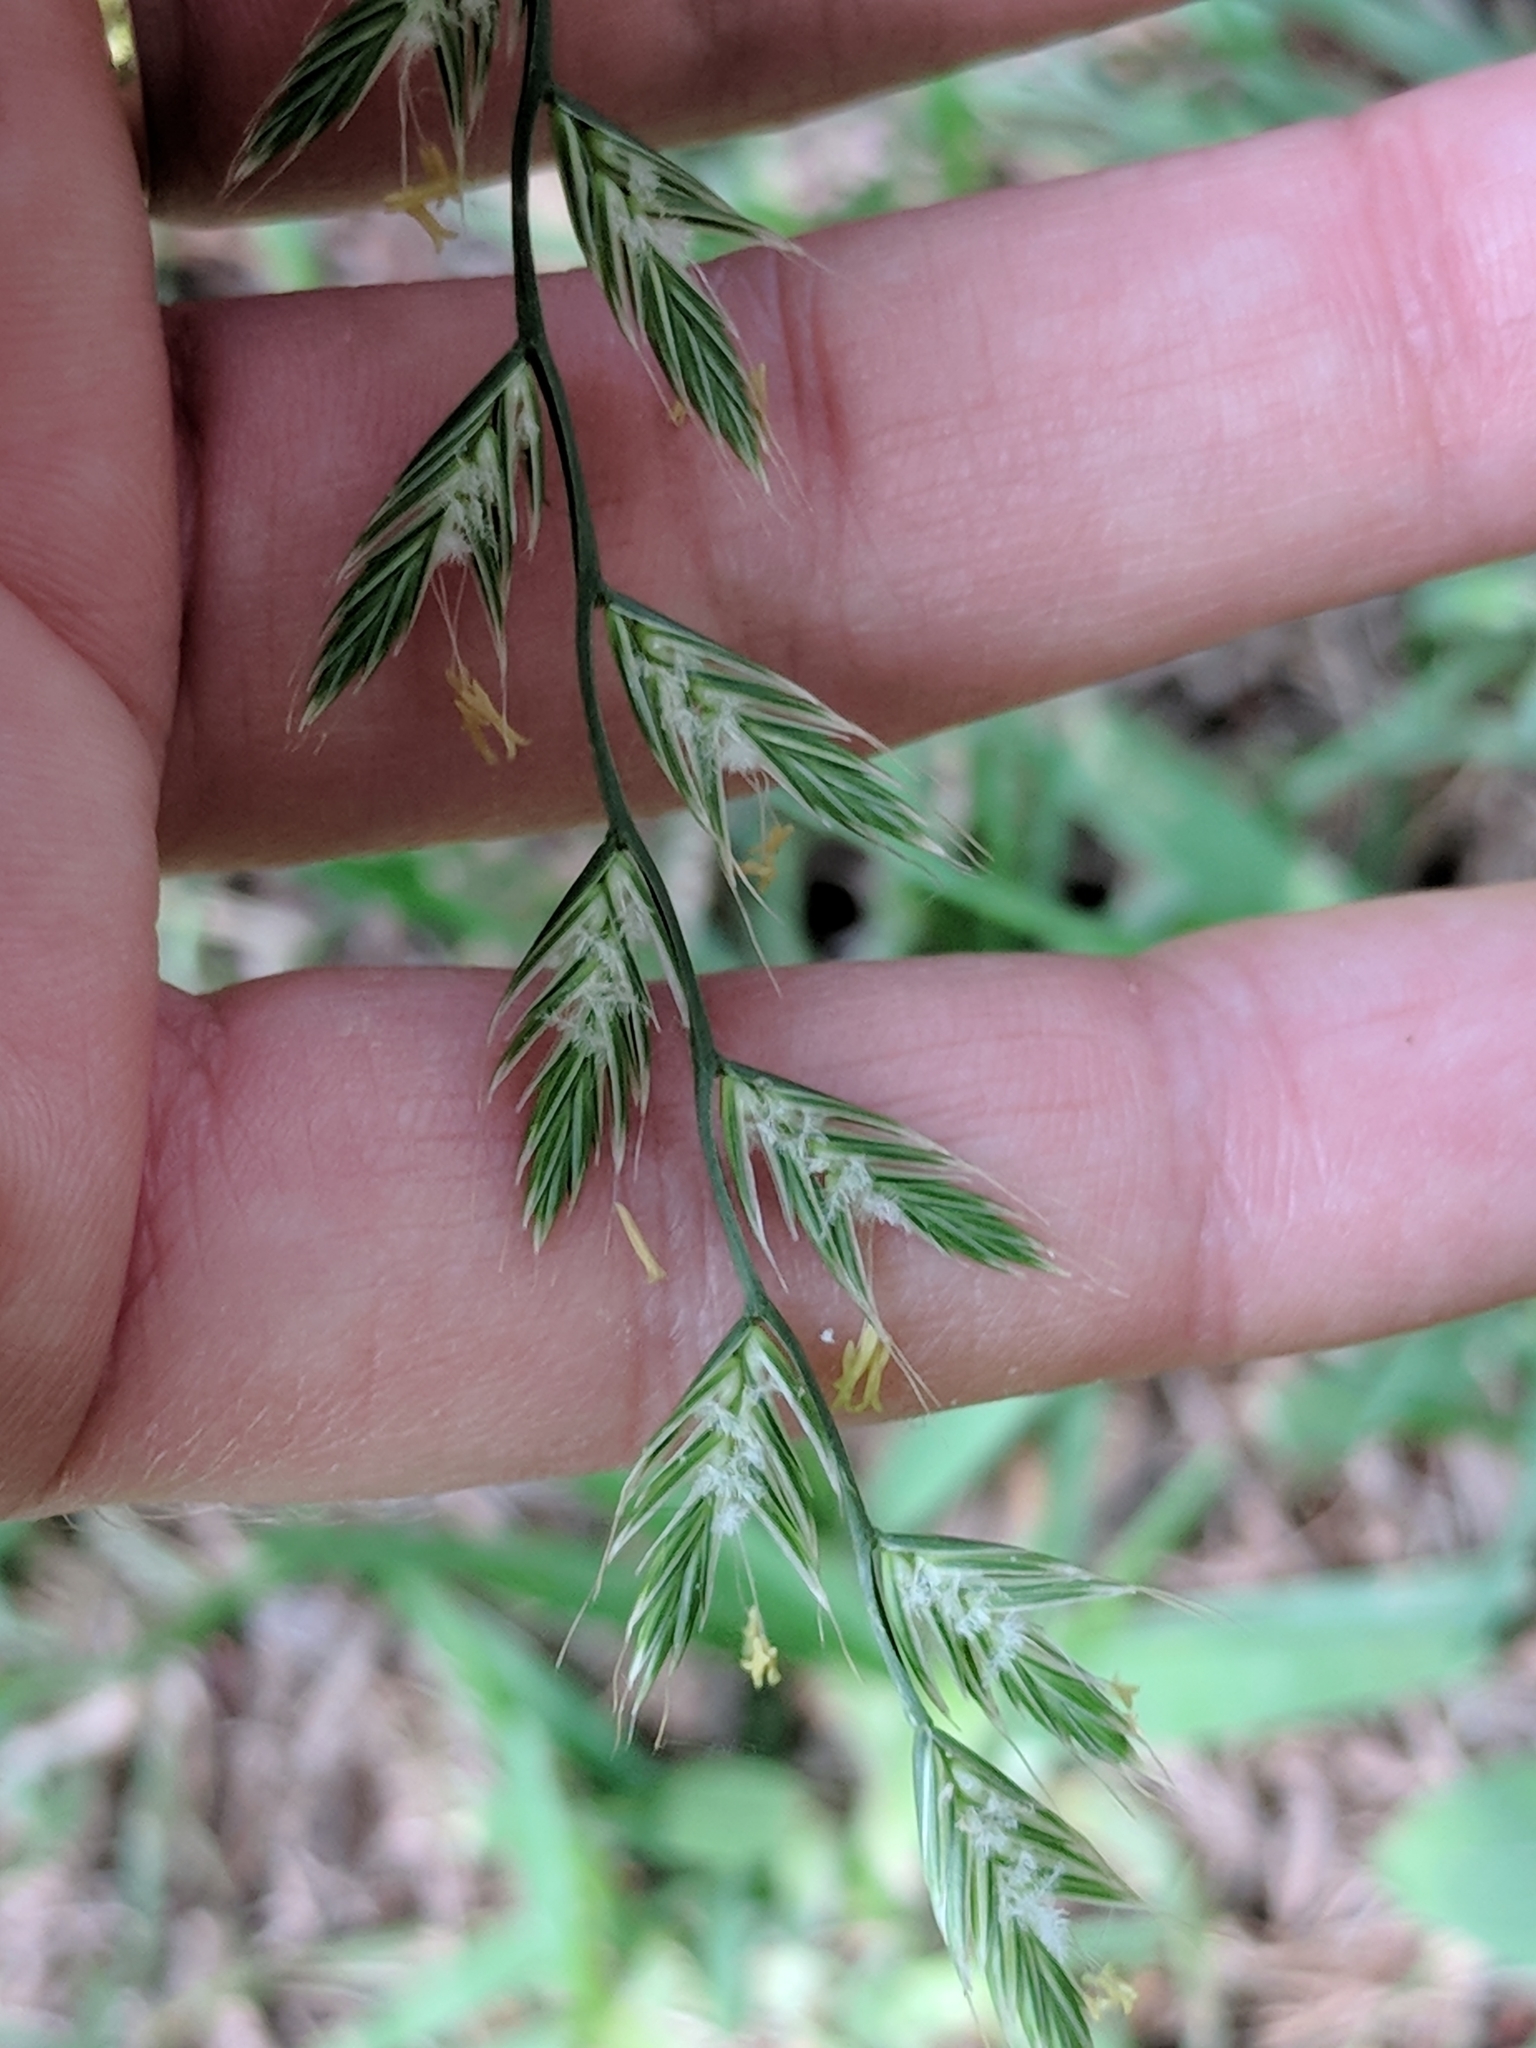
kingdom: Plantae
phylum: Tracheophyta
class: Liliopsida
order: Poales
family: Poaceae
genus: Lolium
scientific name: Lolium perenne
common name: Perennial ryegrass
